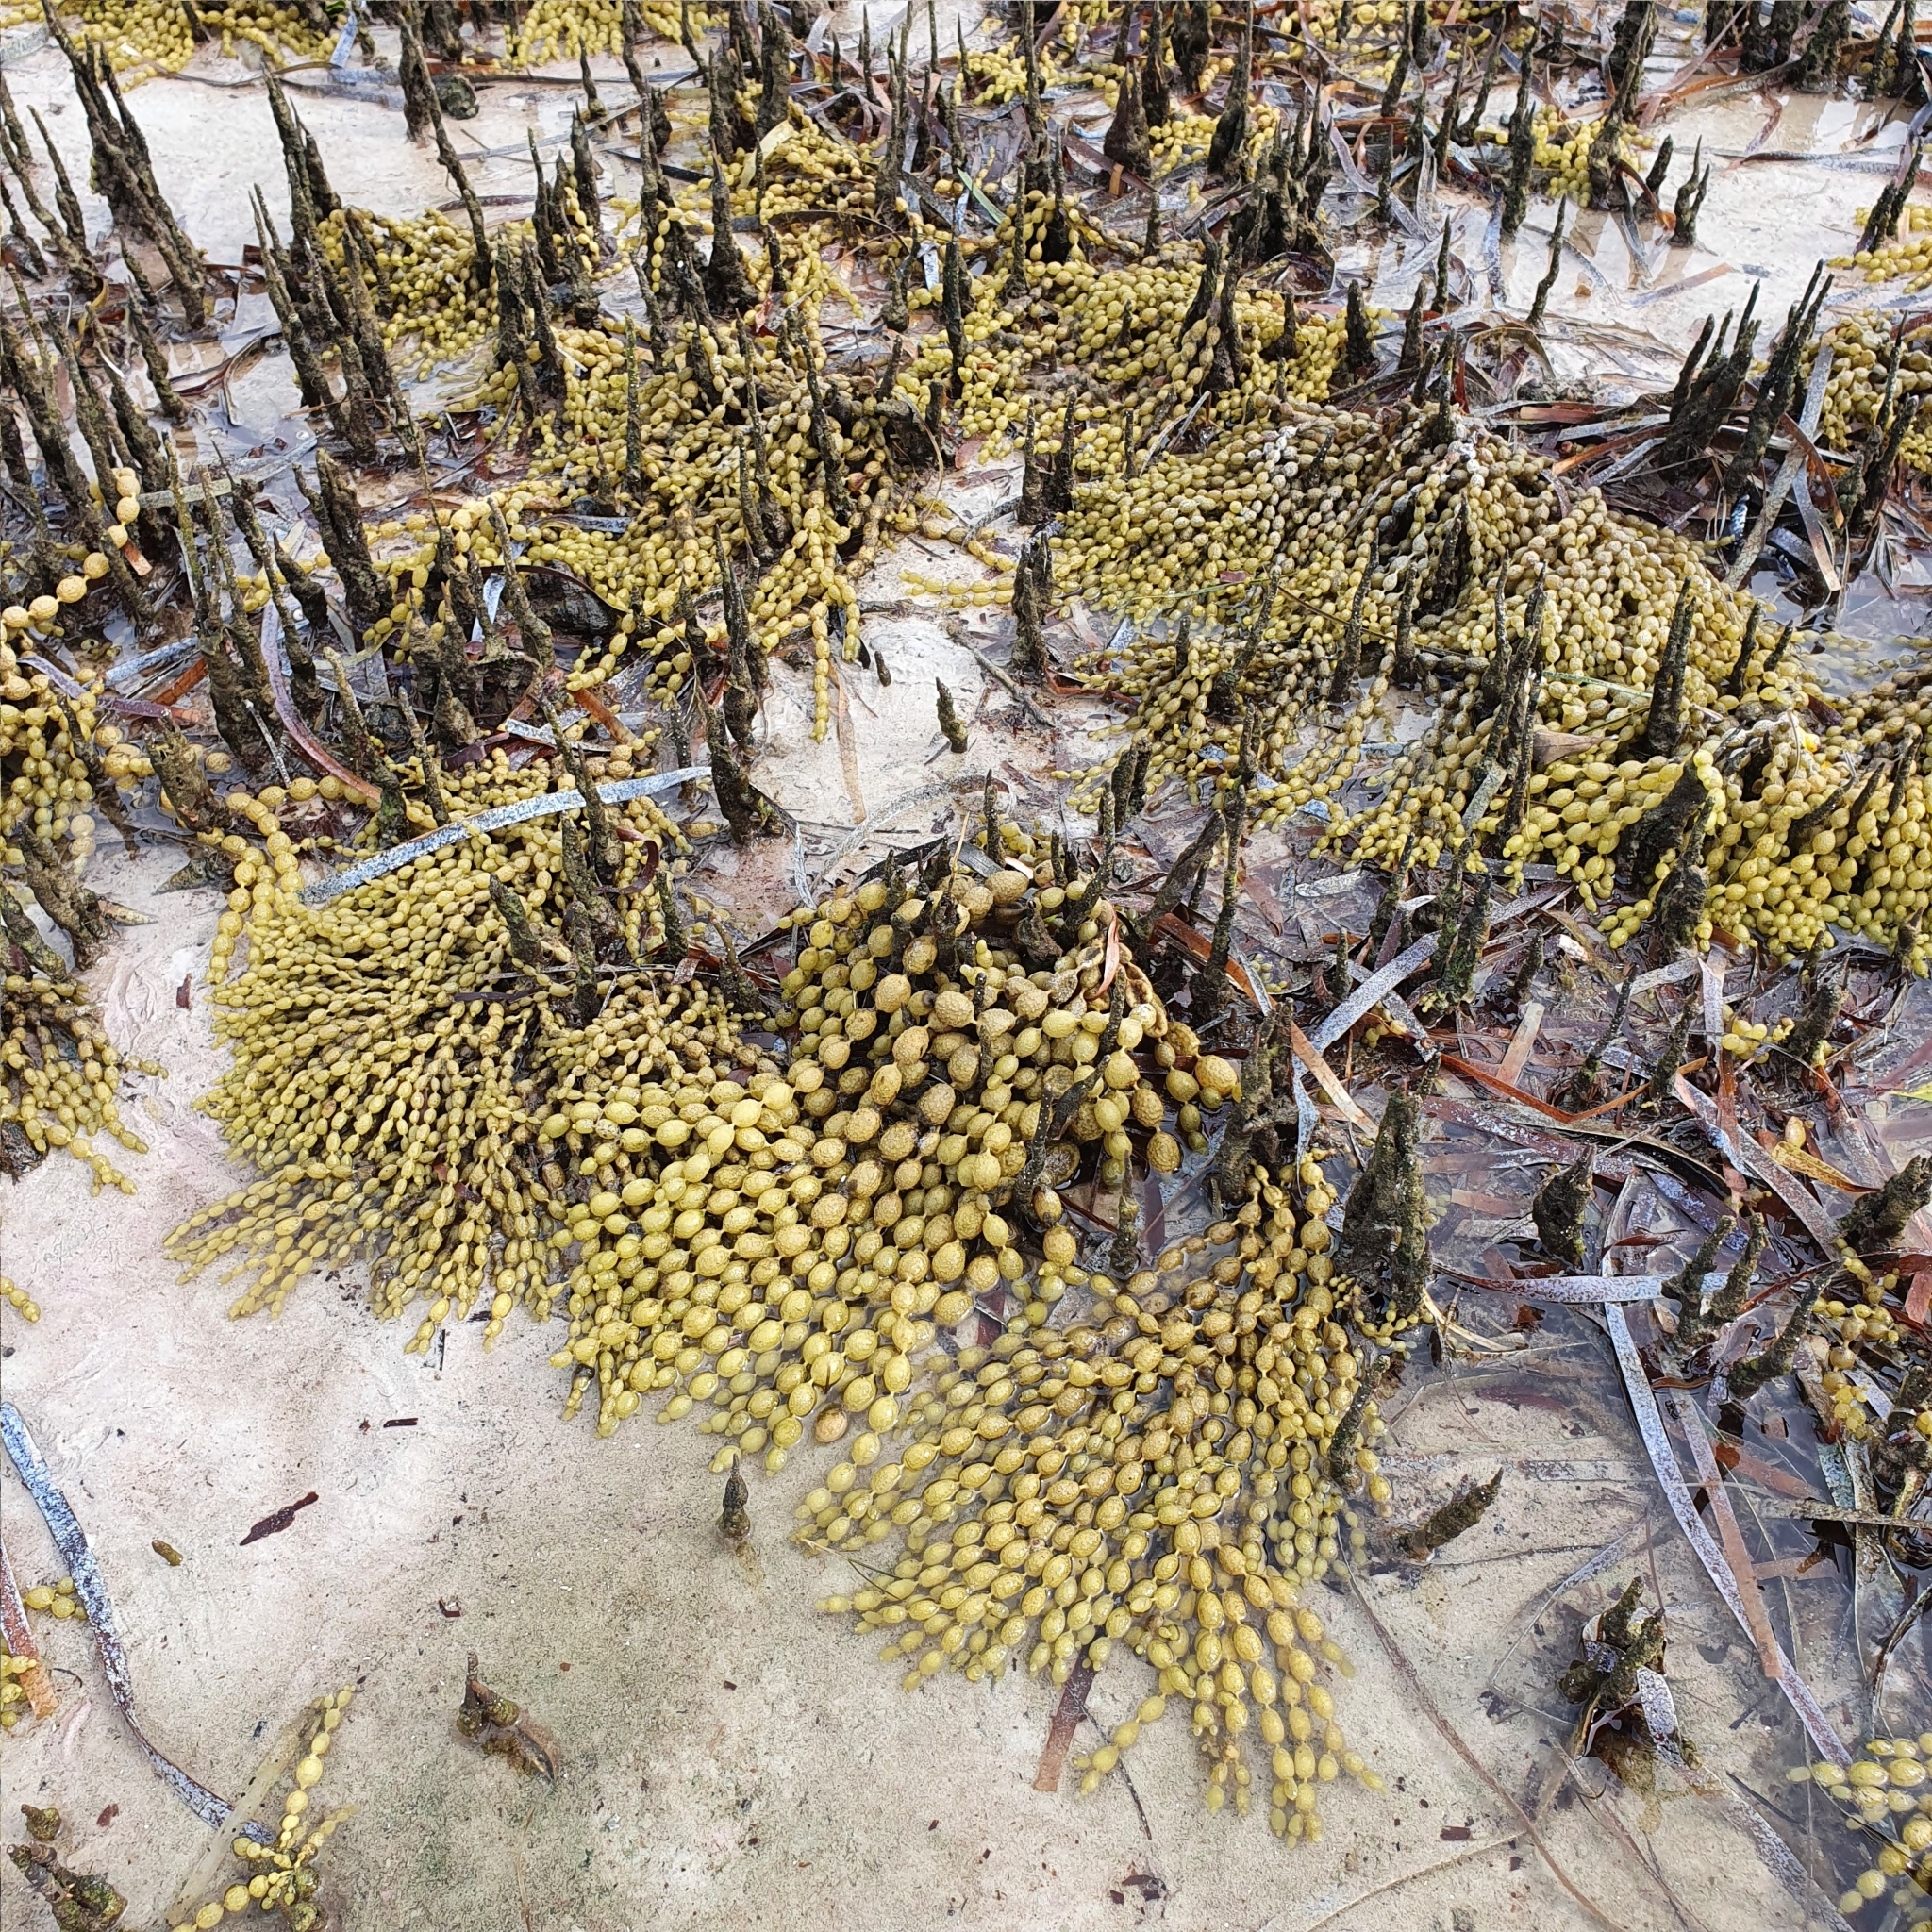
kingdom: Chromista
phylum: Ochrophyta
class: Phaeophyceae
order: Fucales
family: Hormosiraceae
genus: Hormosira
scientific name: Hormosira banksii
